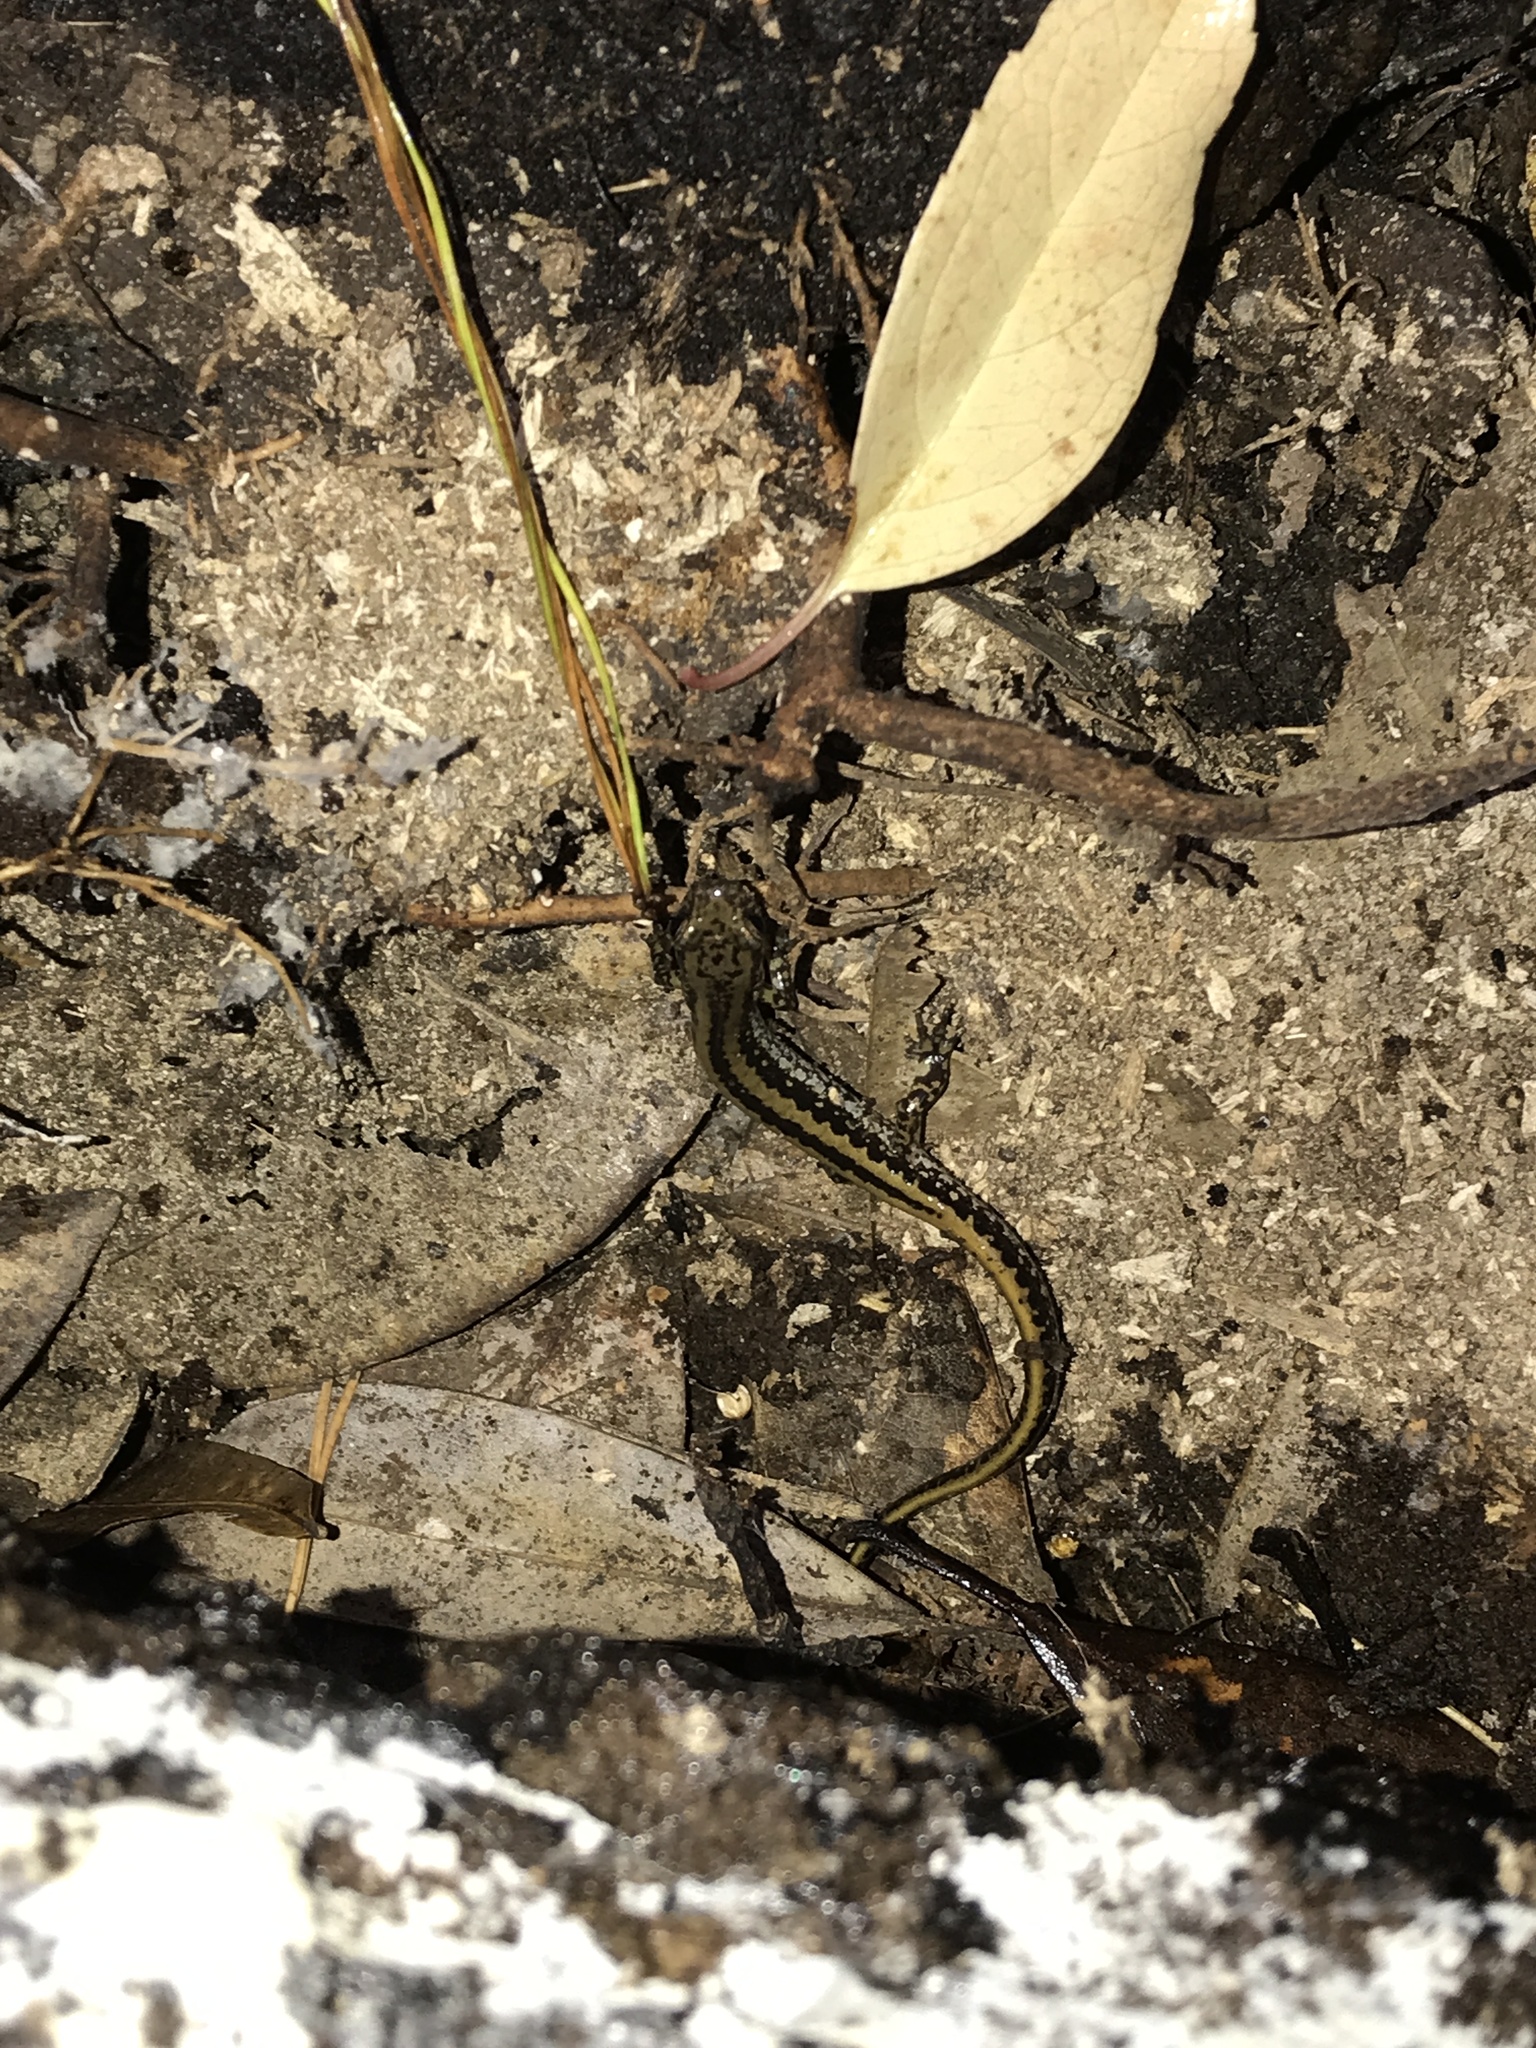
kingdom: Animalia
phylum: Chordata
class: Amphibia
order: Caudata
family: Plethodontidae
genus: Eurycea
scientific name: Eurycea guttolineata
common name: Three-lined salamander
